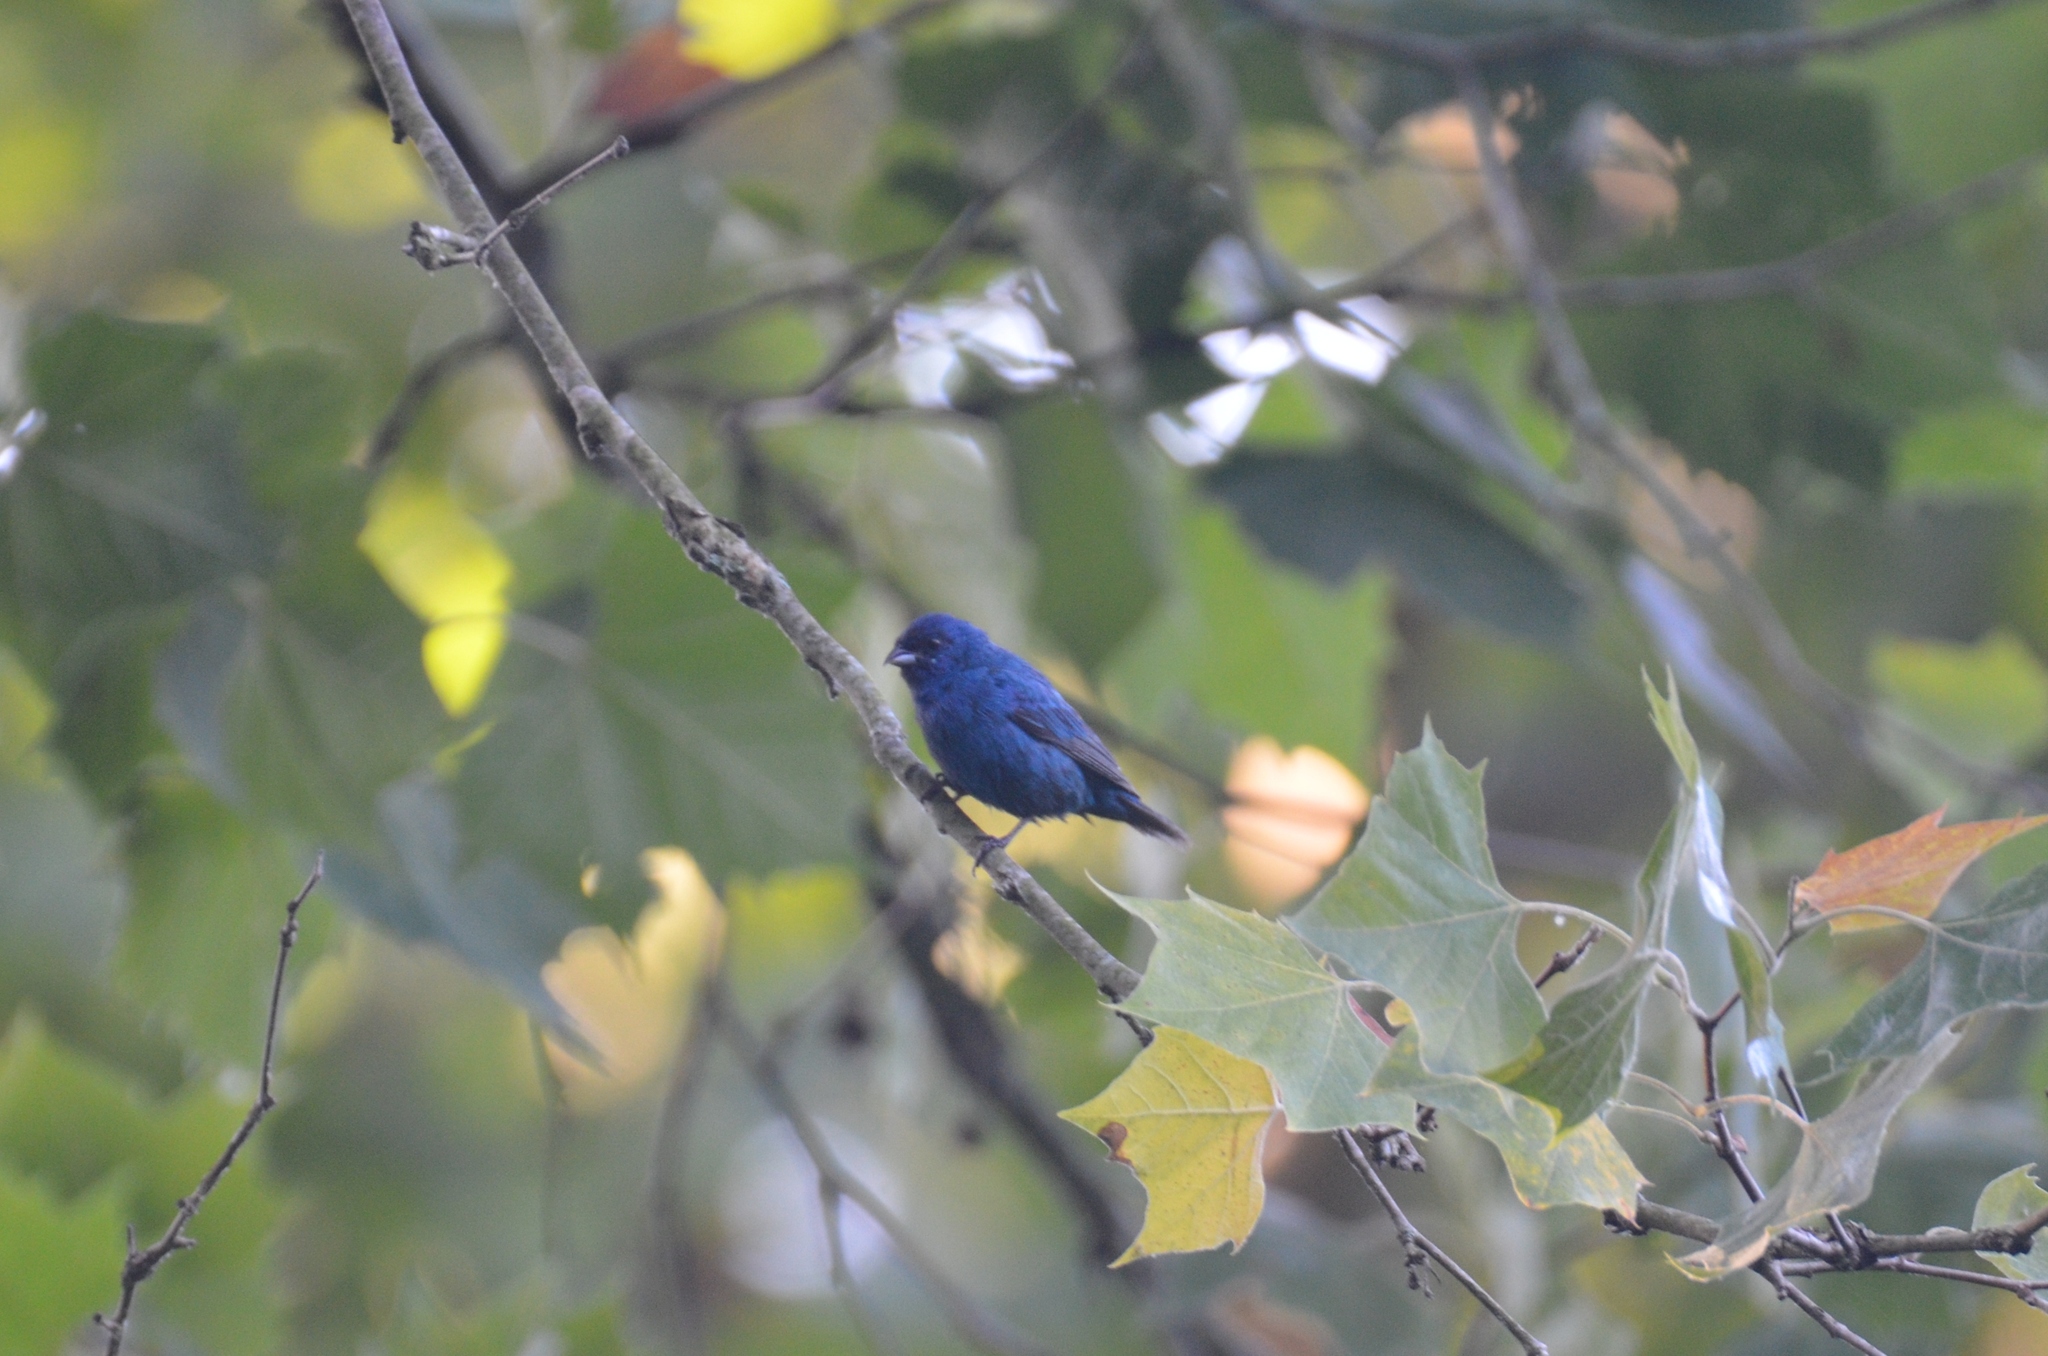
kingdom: Animalia
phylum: Chordata
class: Aves
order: Passeriformes
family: Cardinalidae
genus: Passerina
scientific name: Passerina cyanea
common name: Indigo bunting
